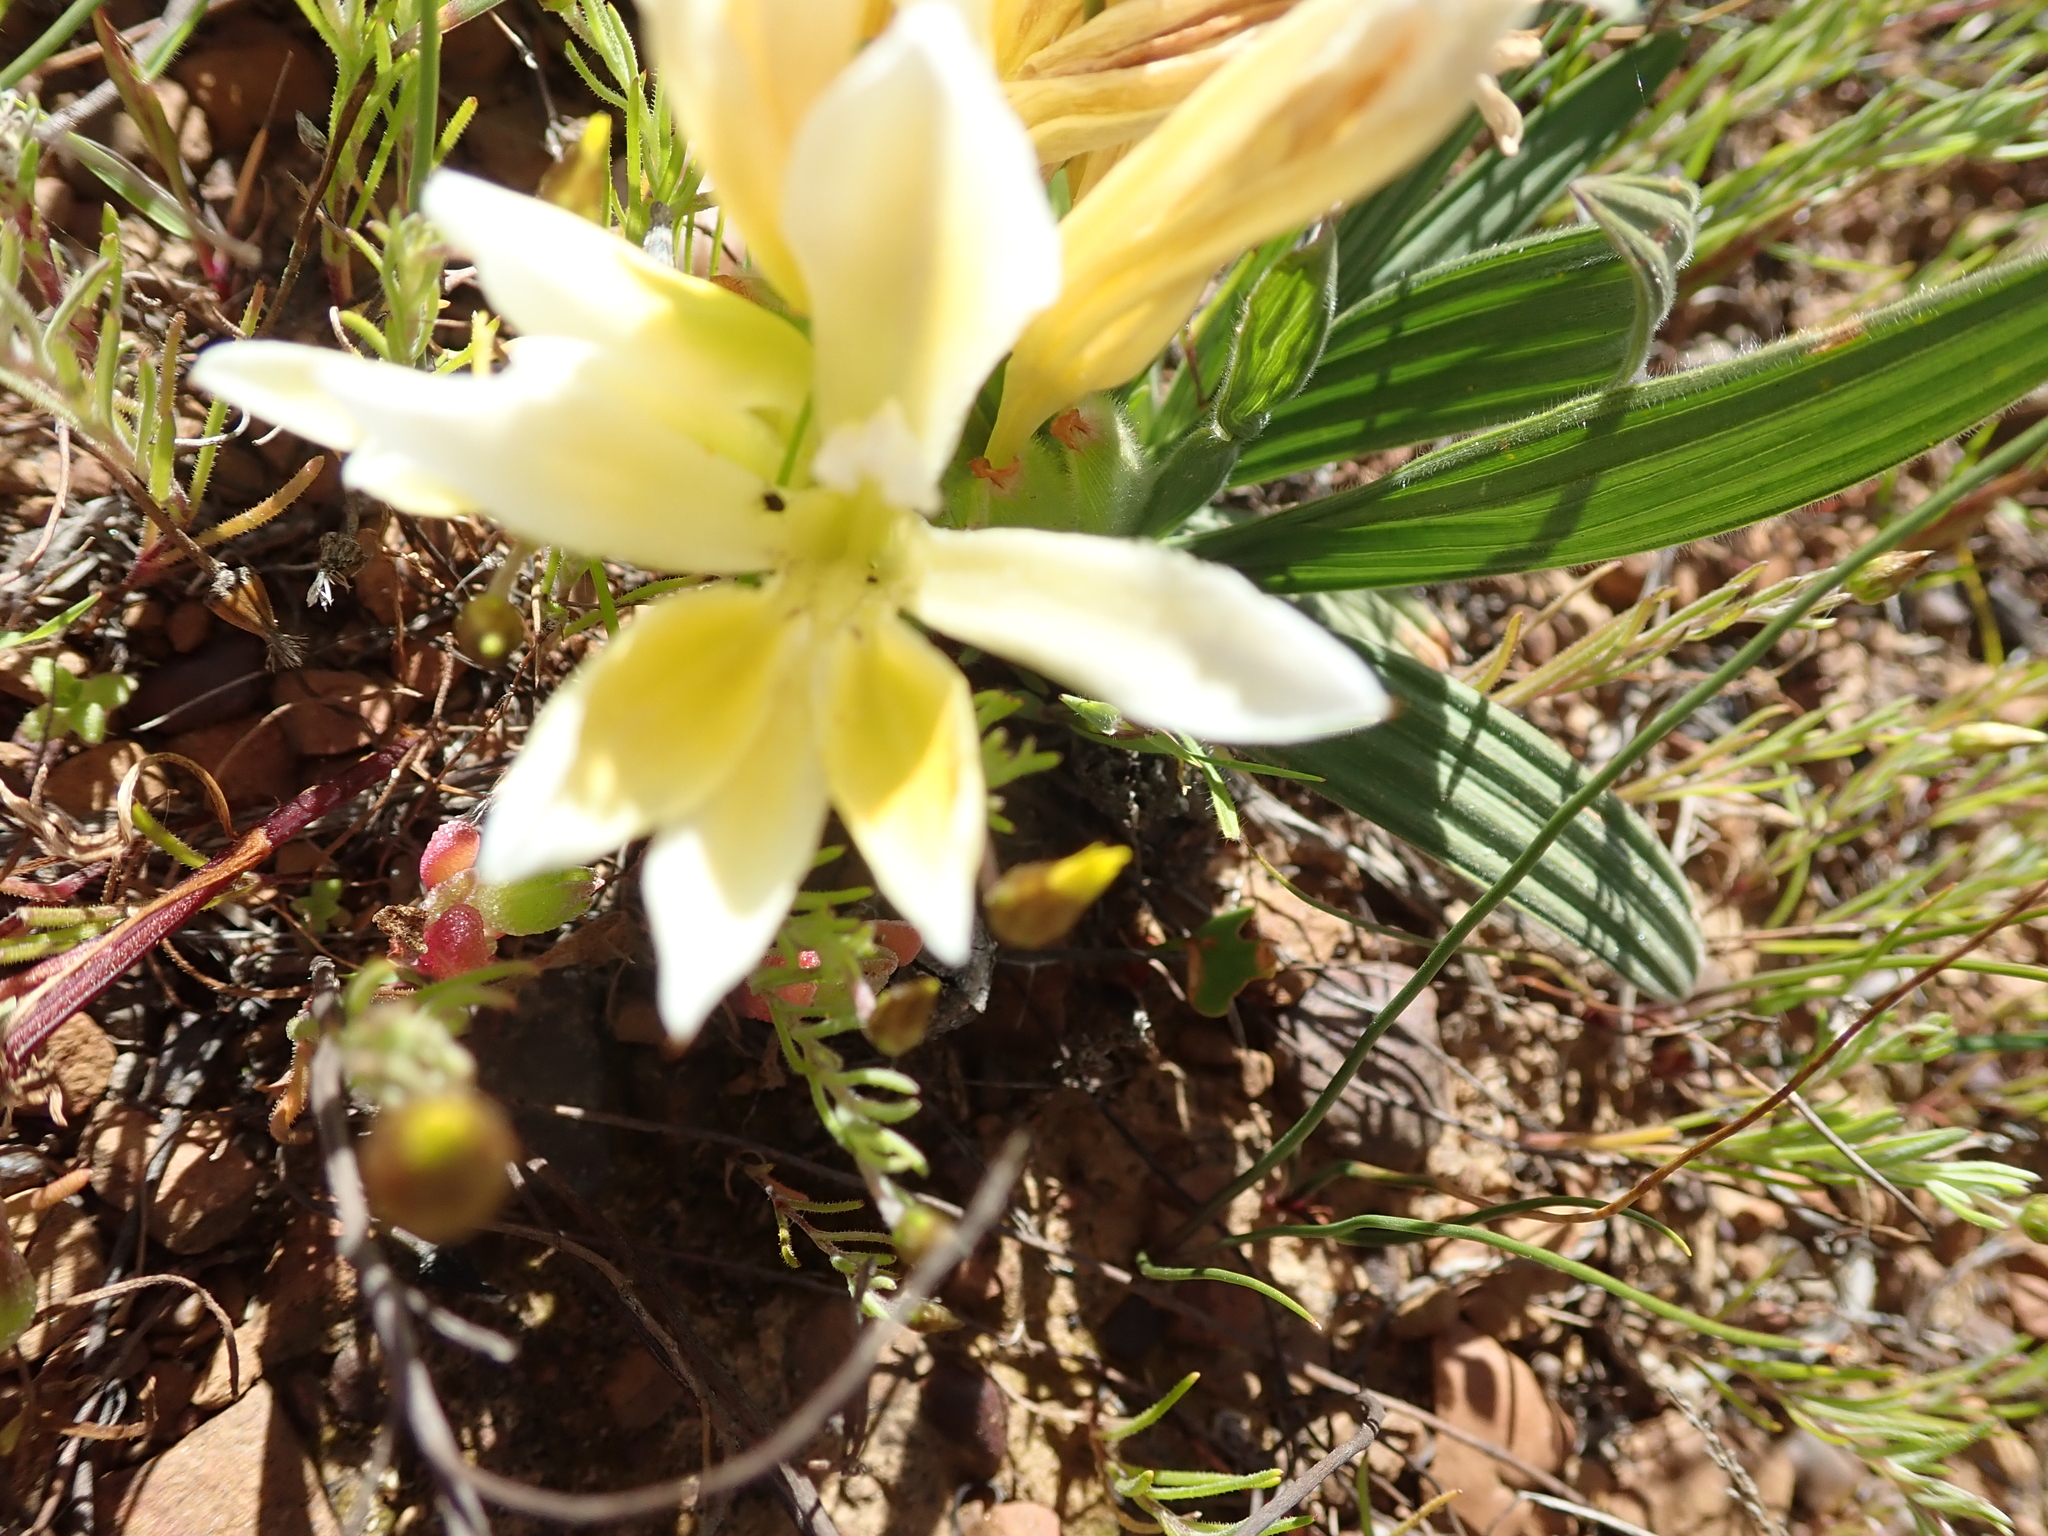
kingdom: Plantae
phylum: Tracheophyta
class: Liliopsida
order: Asparagales
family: Iridaceae
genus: Babiana
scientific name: Babiana vanzijliae
